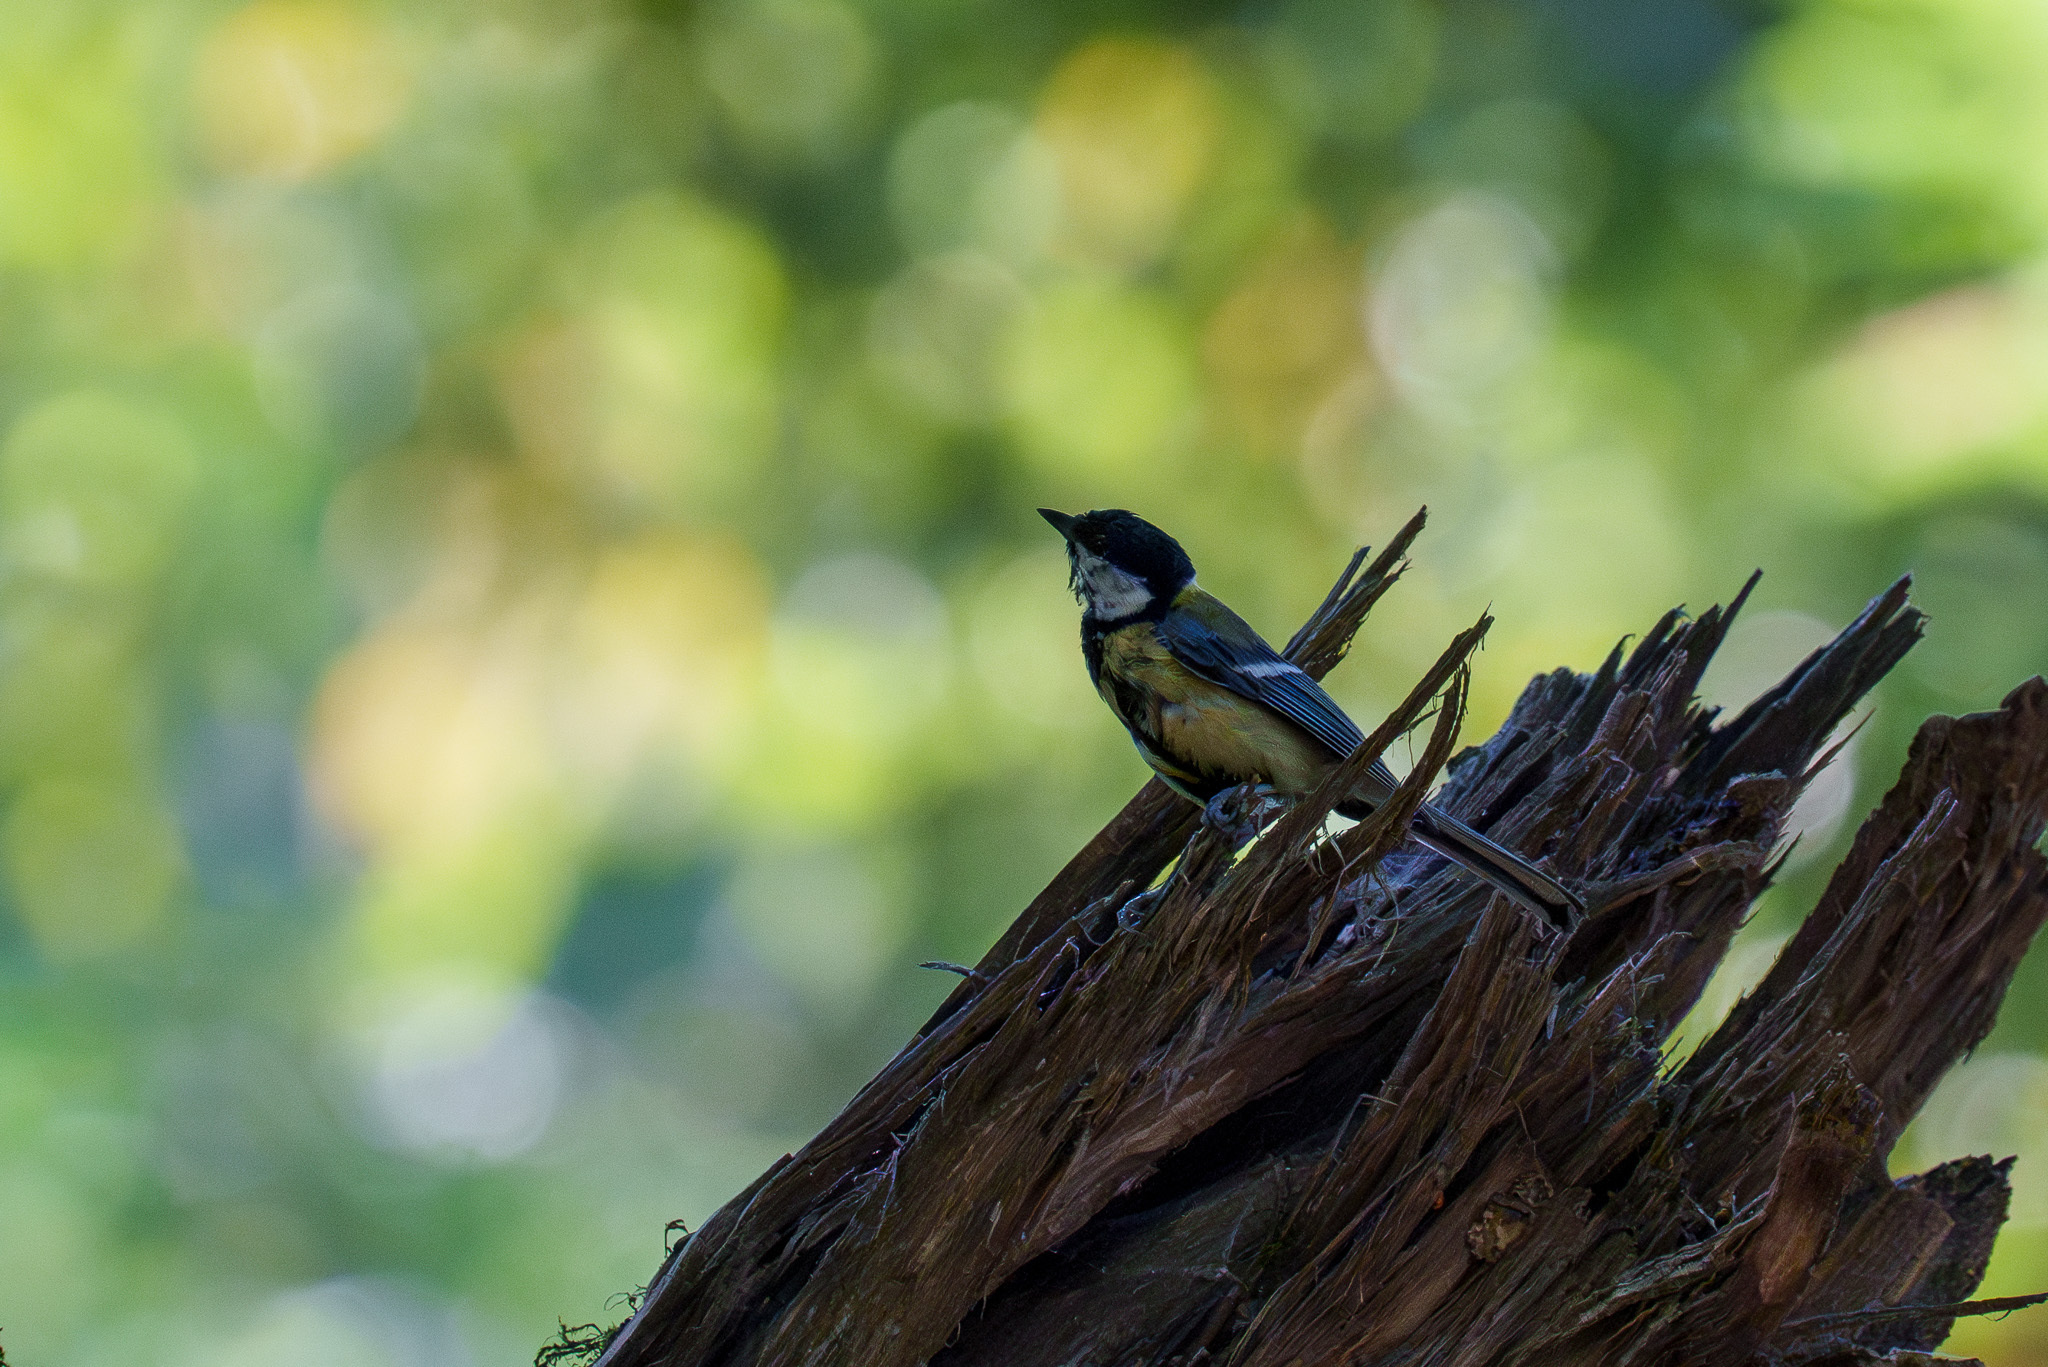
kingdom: Animalia
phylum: Chordata
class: Aves
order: Passeriformes
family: Paridae
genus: Parus
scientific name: Parus major
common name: Great tit
